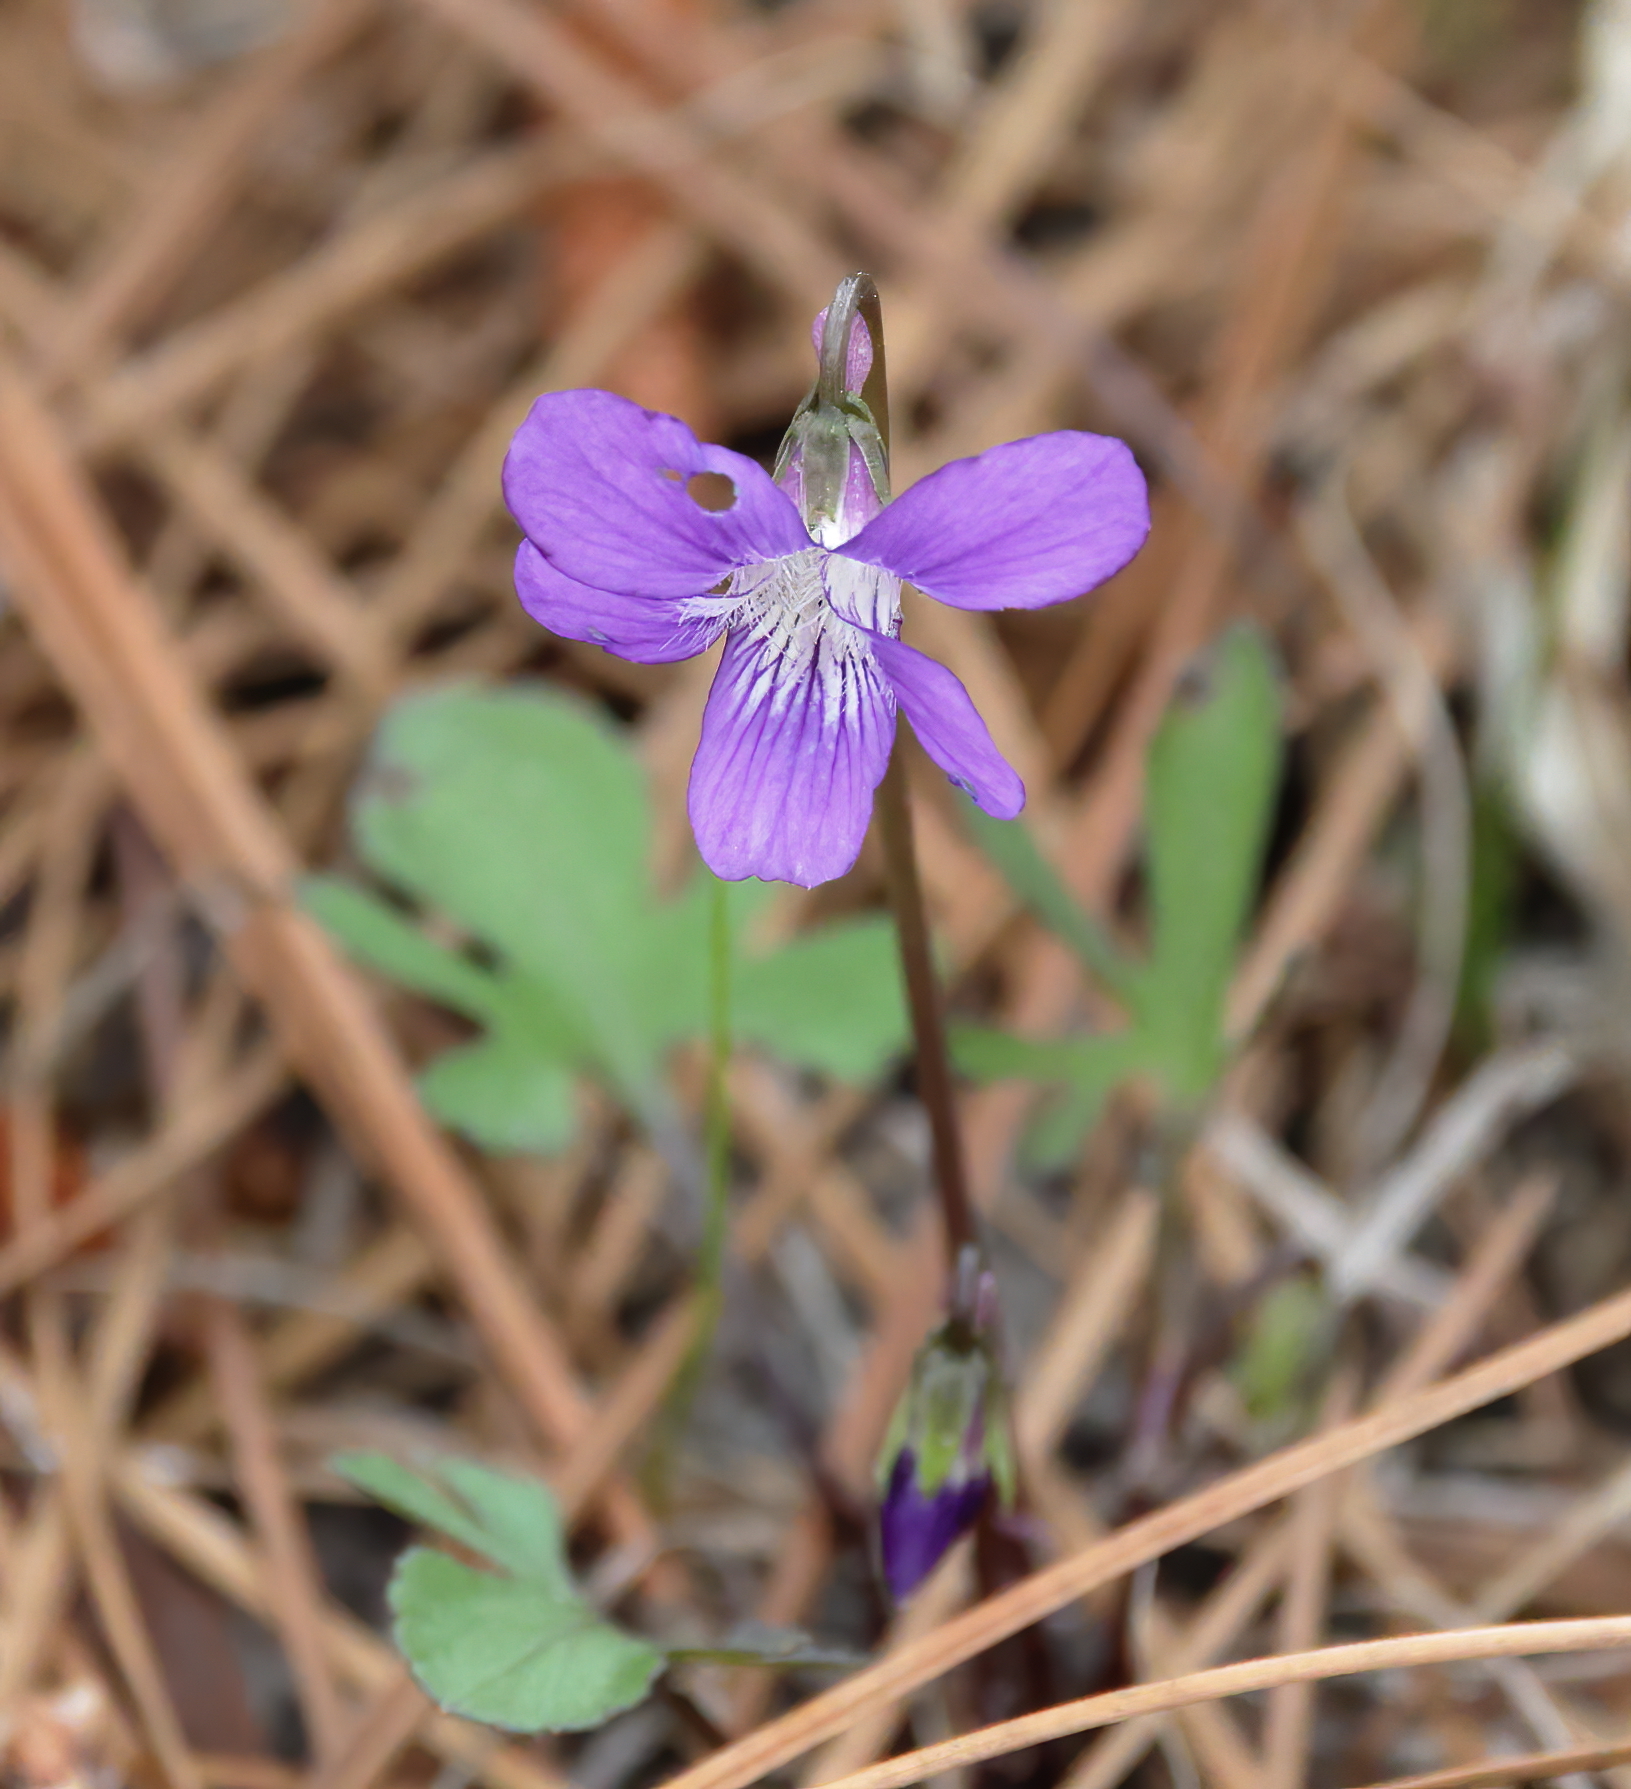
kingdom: Plantae
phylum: Tracheophyta
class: Magnoliopsida
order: Malpighiales
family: Violaceae
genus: Viola
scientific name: Viola septemloba
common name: Southern coast violet
